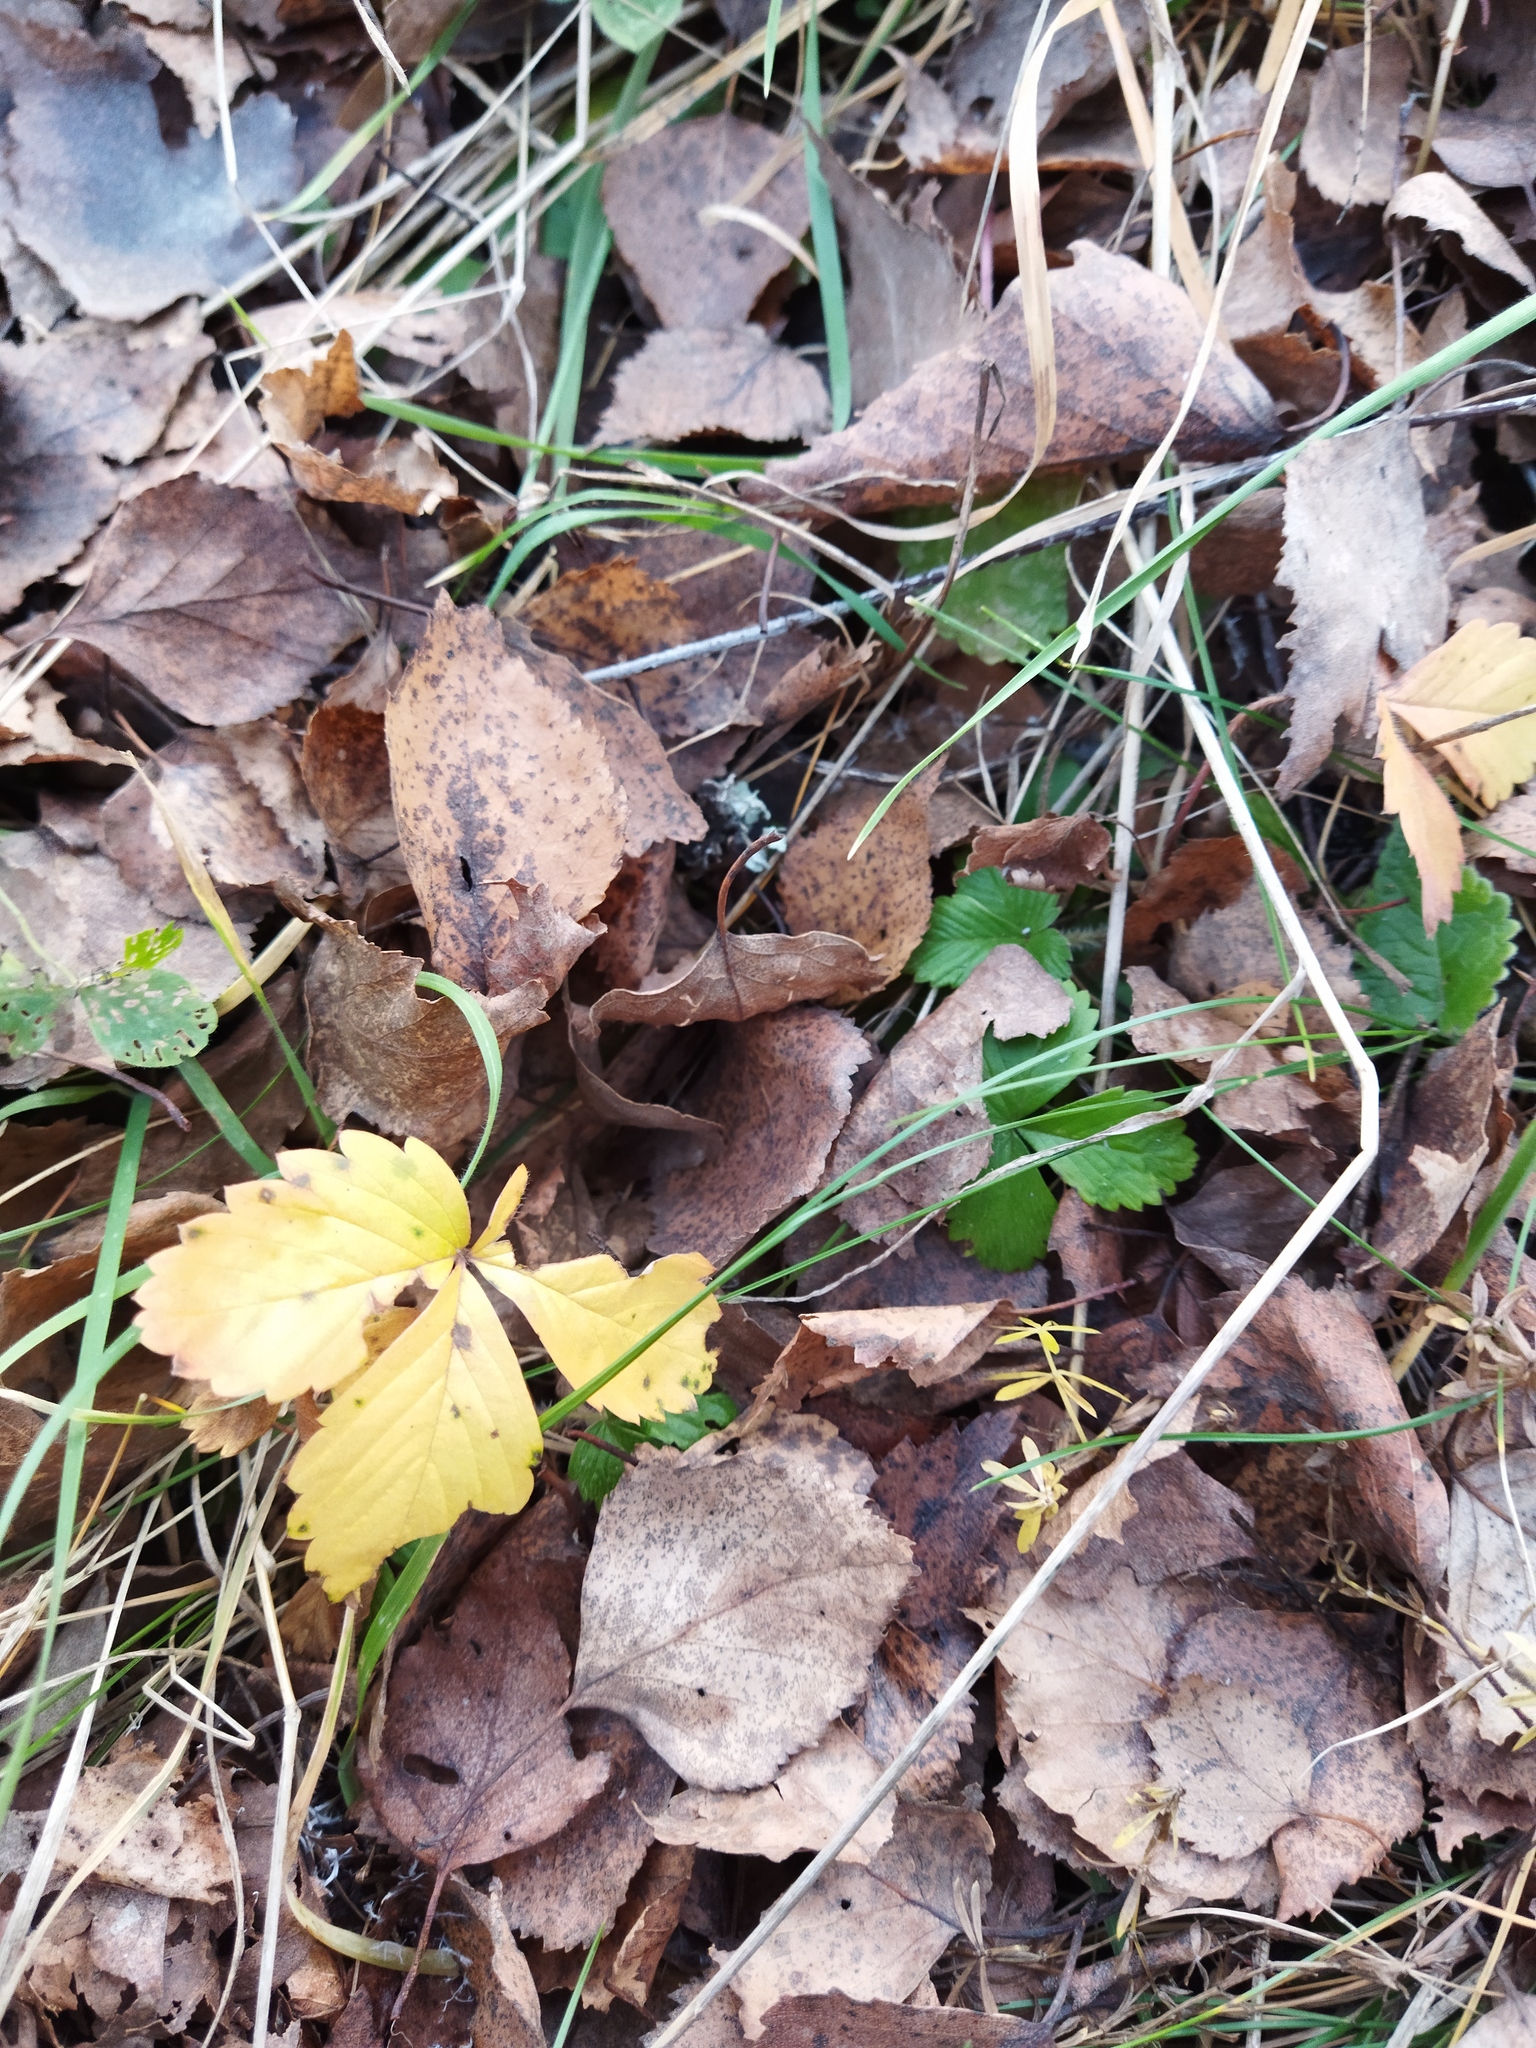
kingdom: Plantae
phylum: Tracheophyta
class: Magnoliopsida
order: Rosales
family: Rosaceae
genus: Fragaria
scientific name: Fragaria vesca
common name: Wild strawberry
